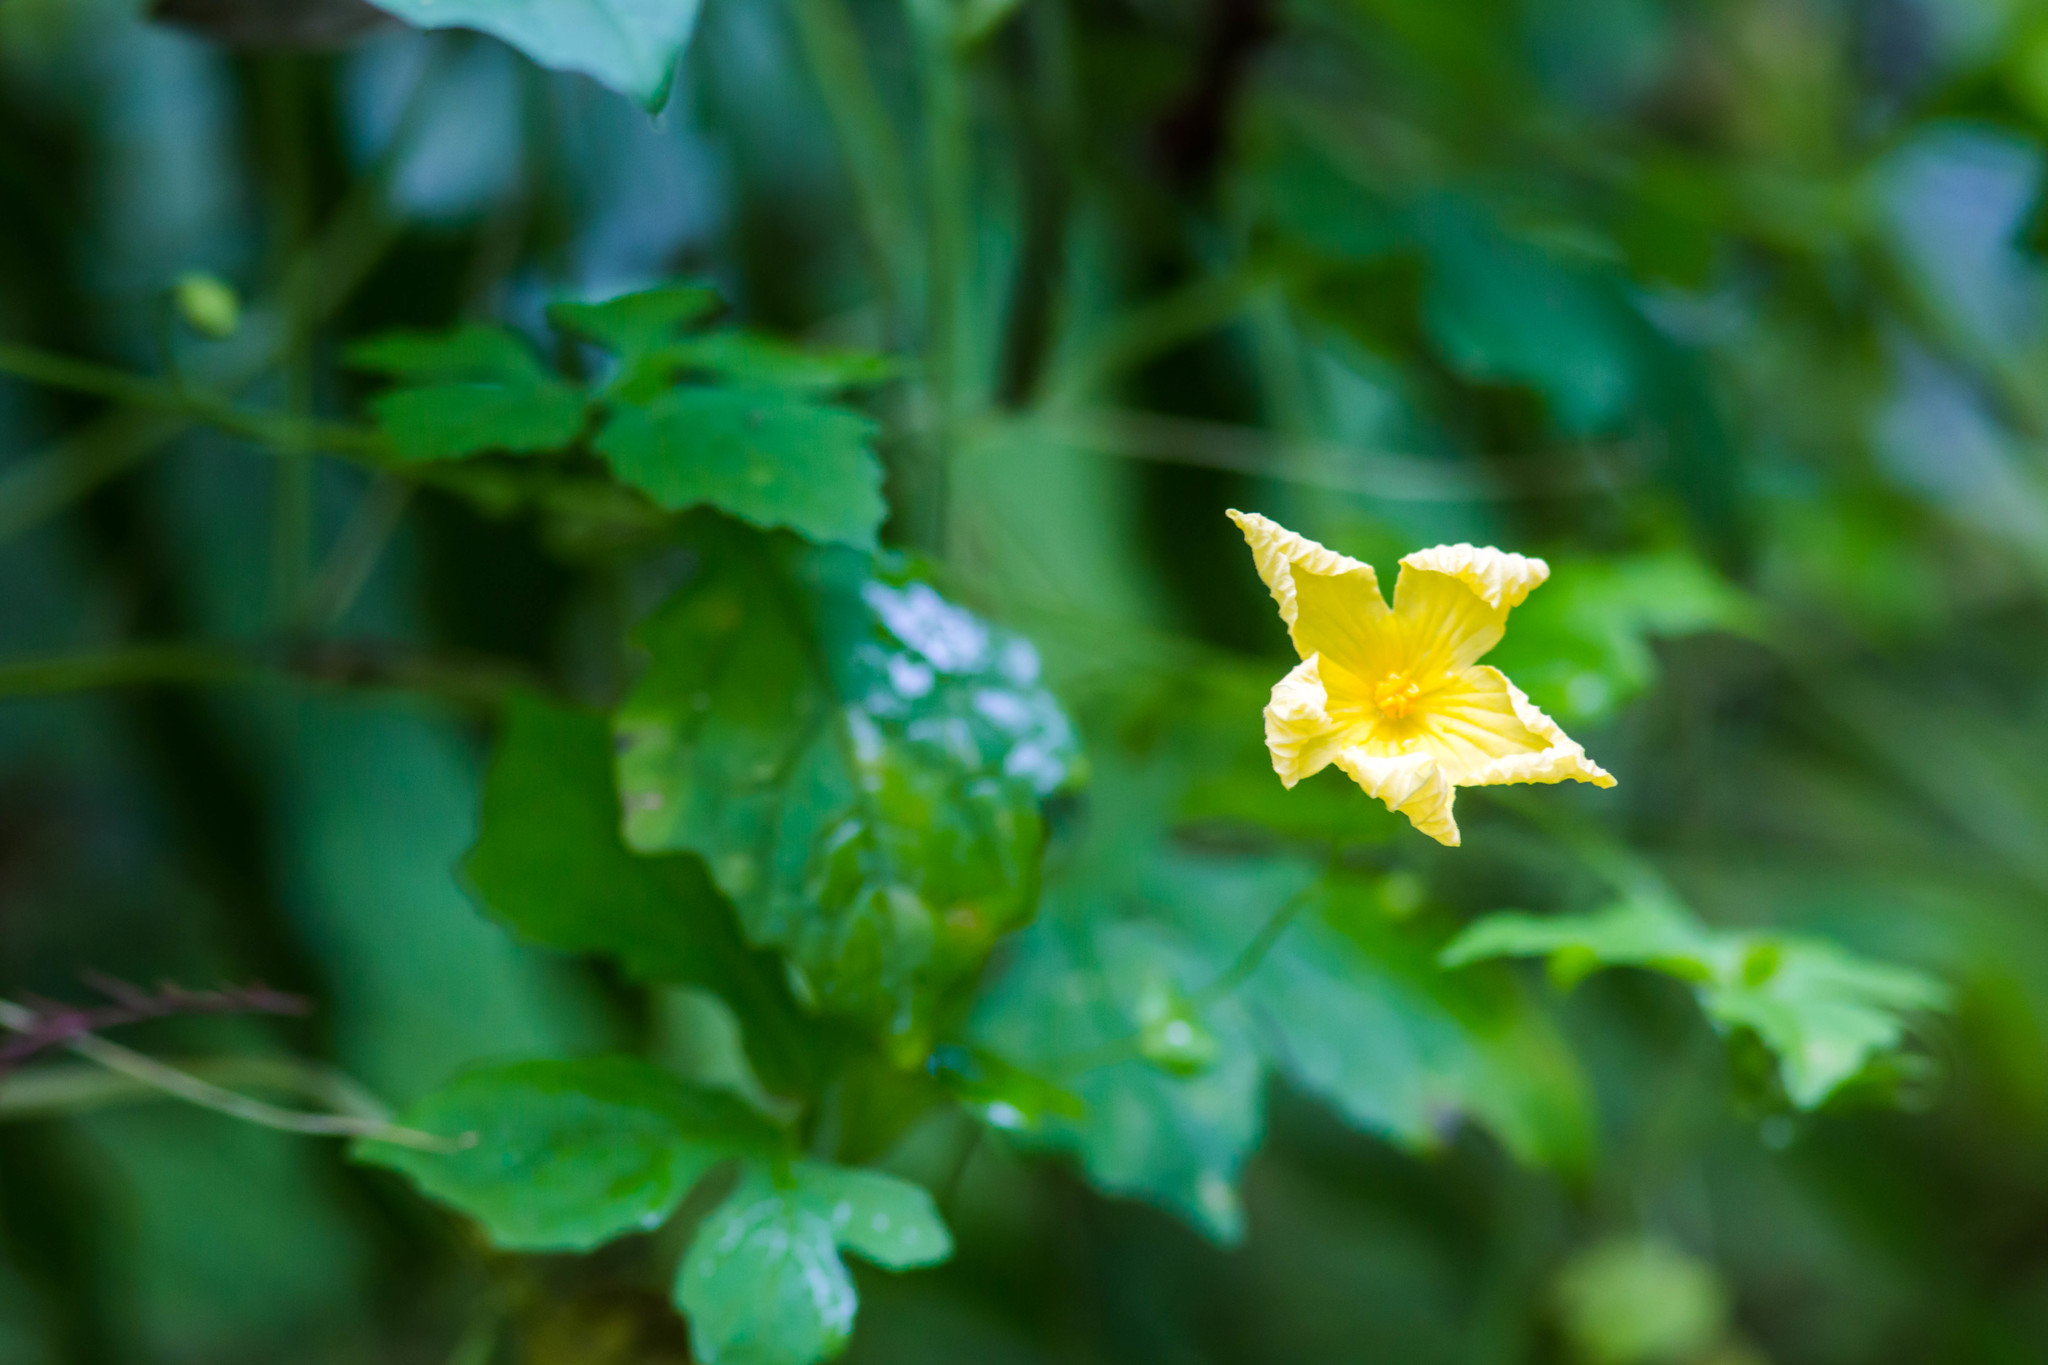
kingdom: Plantae
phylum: Tracheophyta
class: Magnoliopsida
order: Cucurbitales
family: Cucurbitaceae
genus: Momordica
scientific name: Momordica charantia
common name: Balsampear
